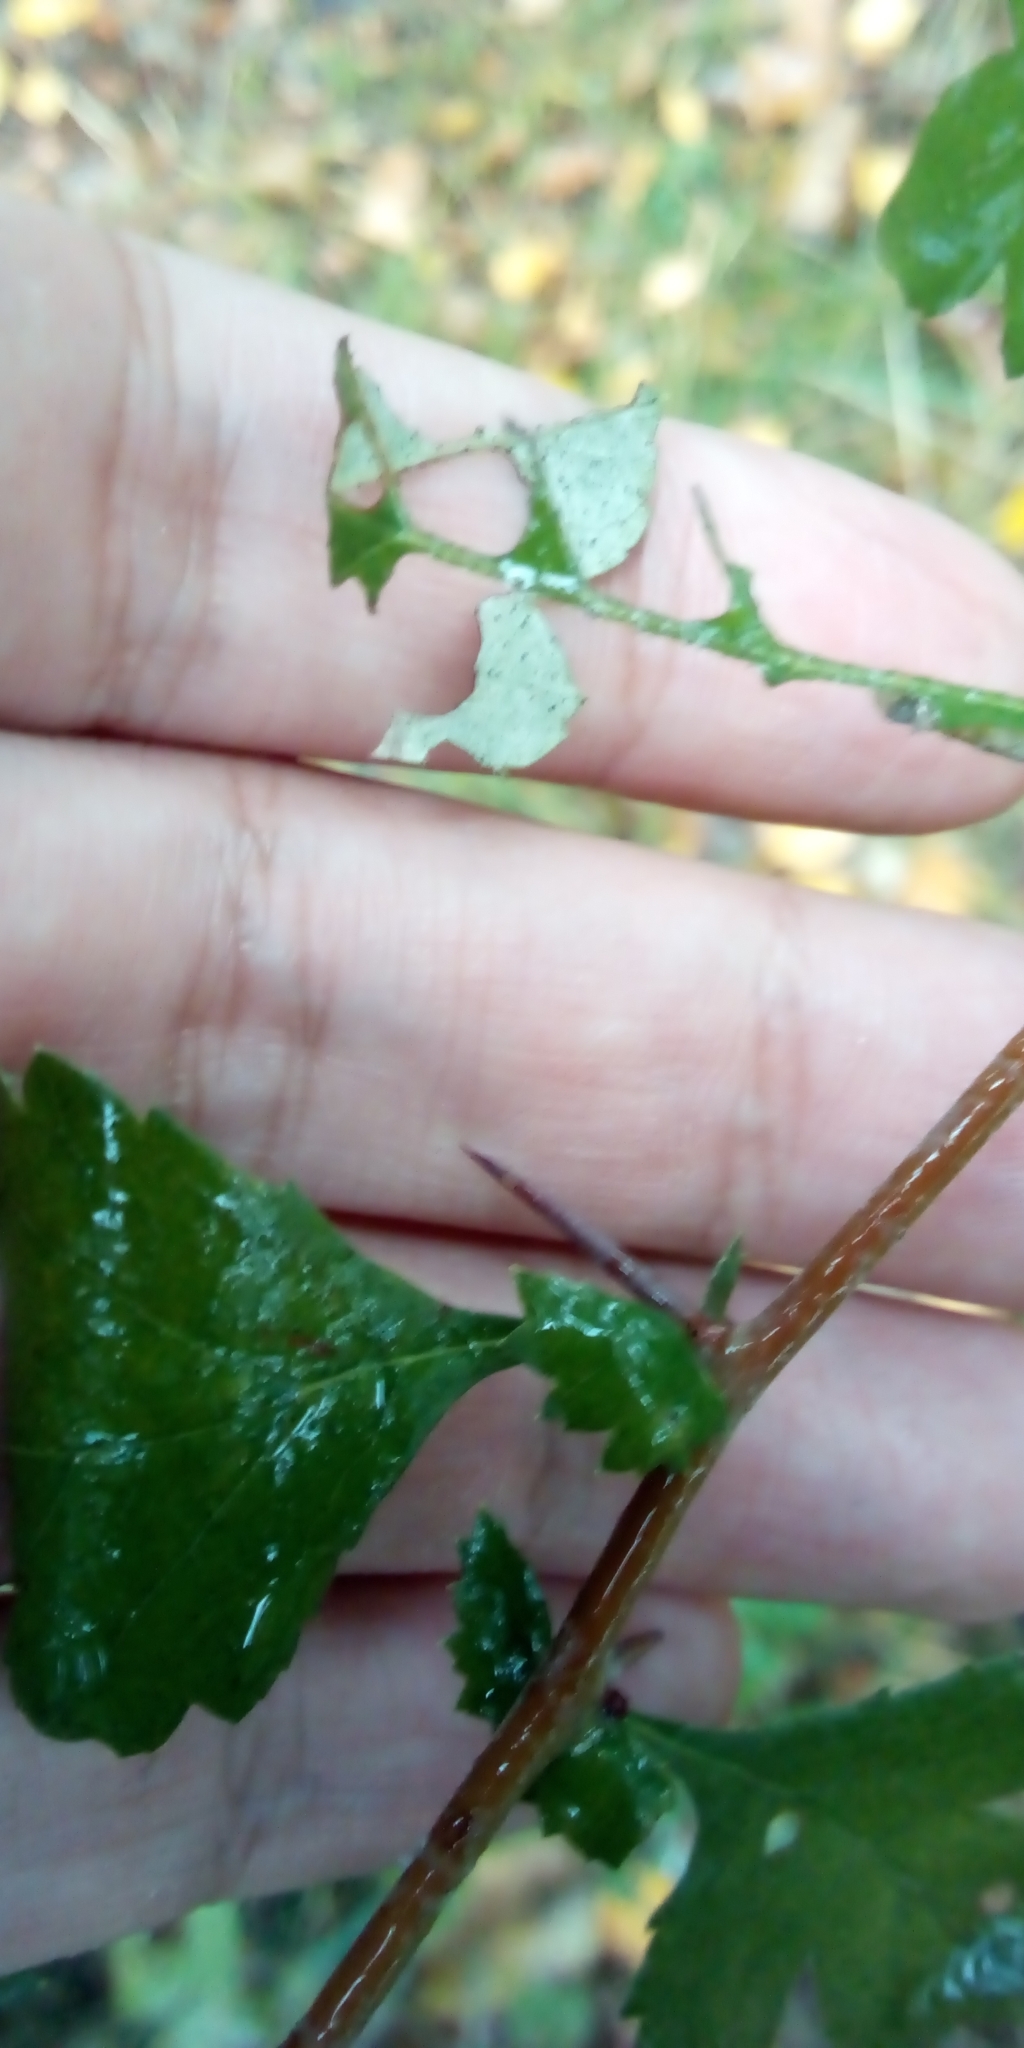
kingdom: Plantae
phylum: Tracheophyta
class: Magnoliopsida
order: Rosales
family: Rosaceae
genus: Crataegus
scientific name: Crataegus
